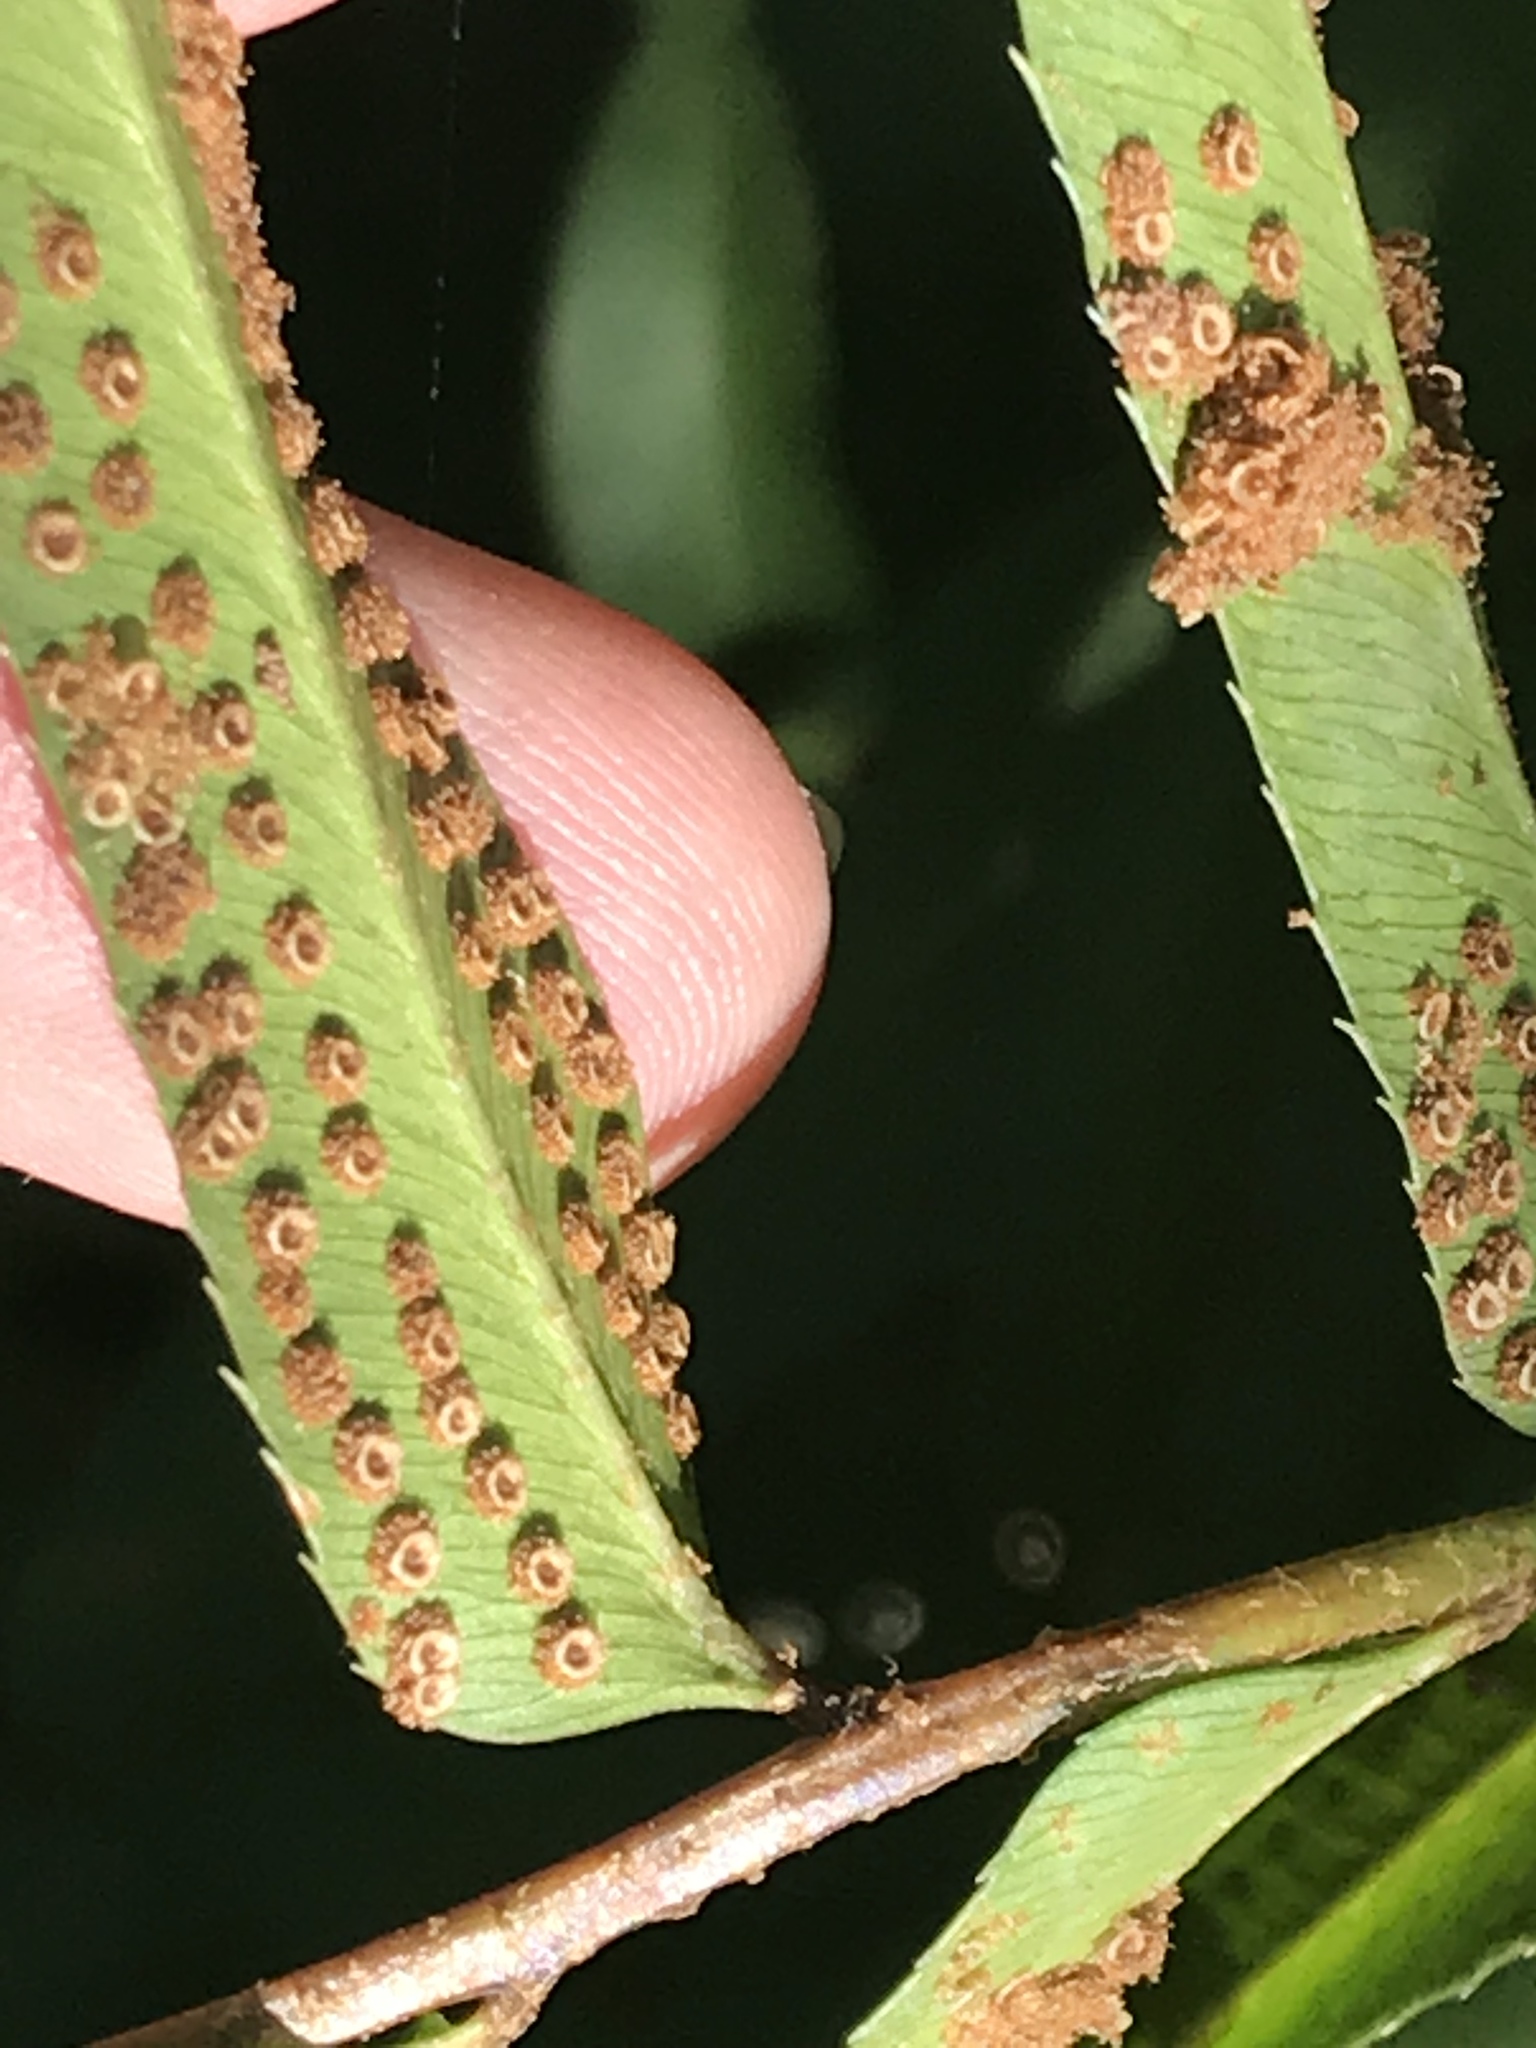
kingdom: Plantae
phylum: Tracheophyta
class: Polypodiopsida
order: Polypodiales
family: Dryopteridaceae
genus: Phanerophlebia
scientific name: Phanerophlebia umbonata
